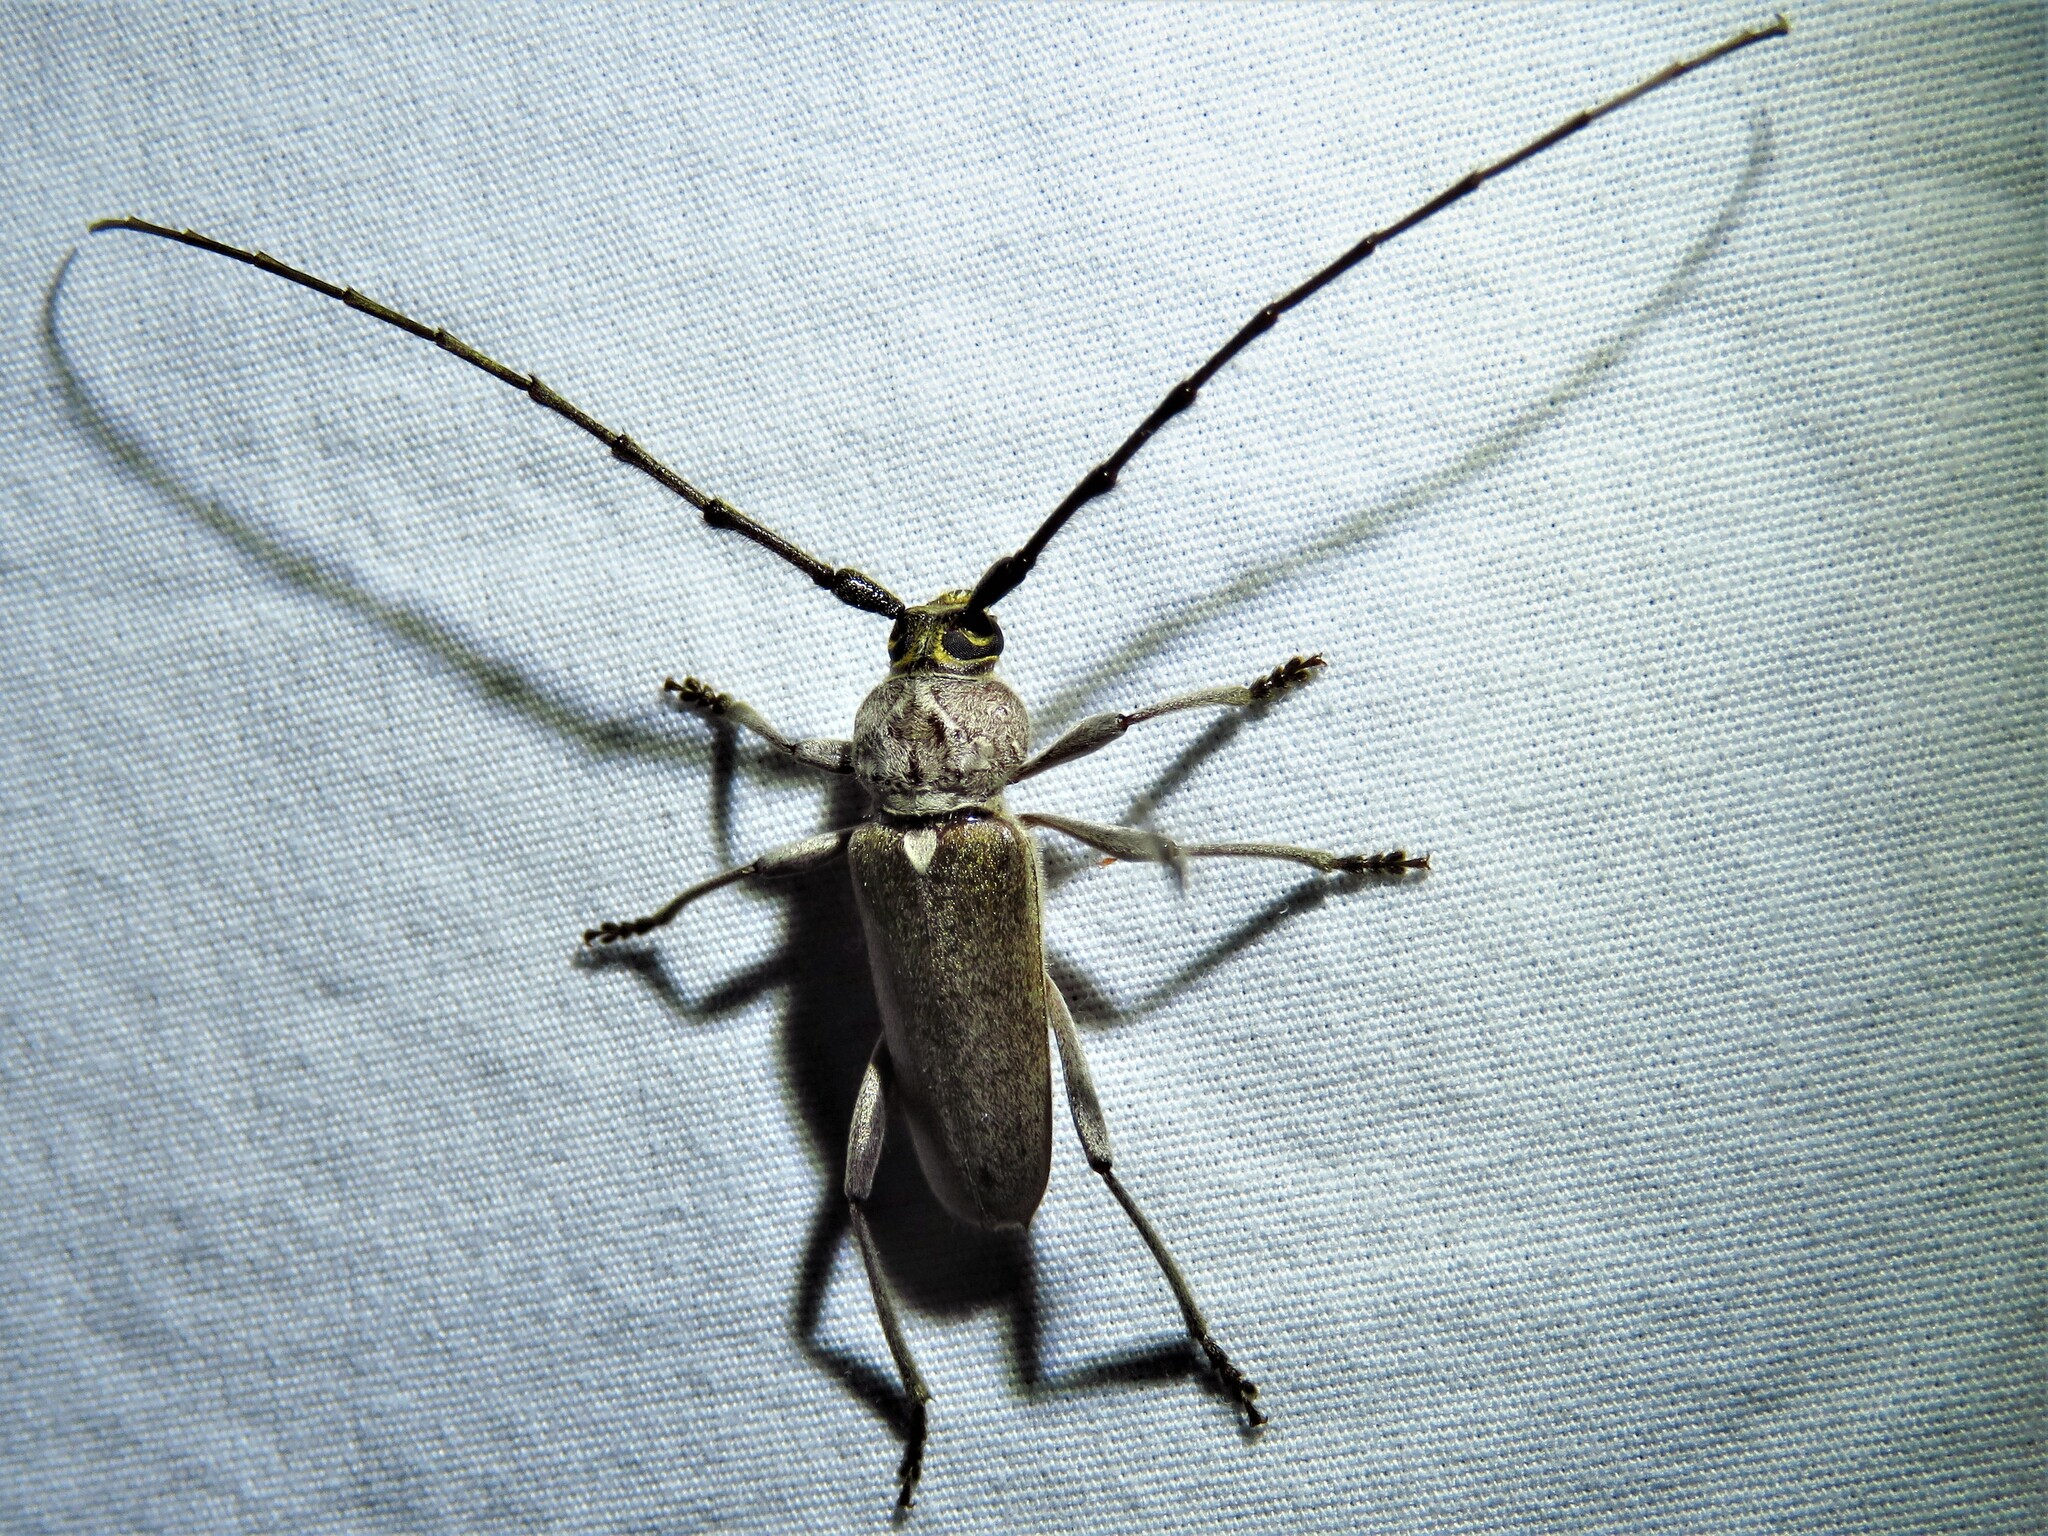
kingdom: Animalia
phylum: Arthropoda
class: Insecta
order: Coleoptera
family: Cerambycidae
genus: Gnaphalodes
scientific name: Gnaphalodes trachyderoides
